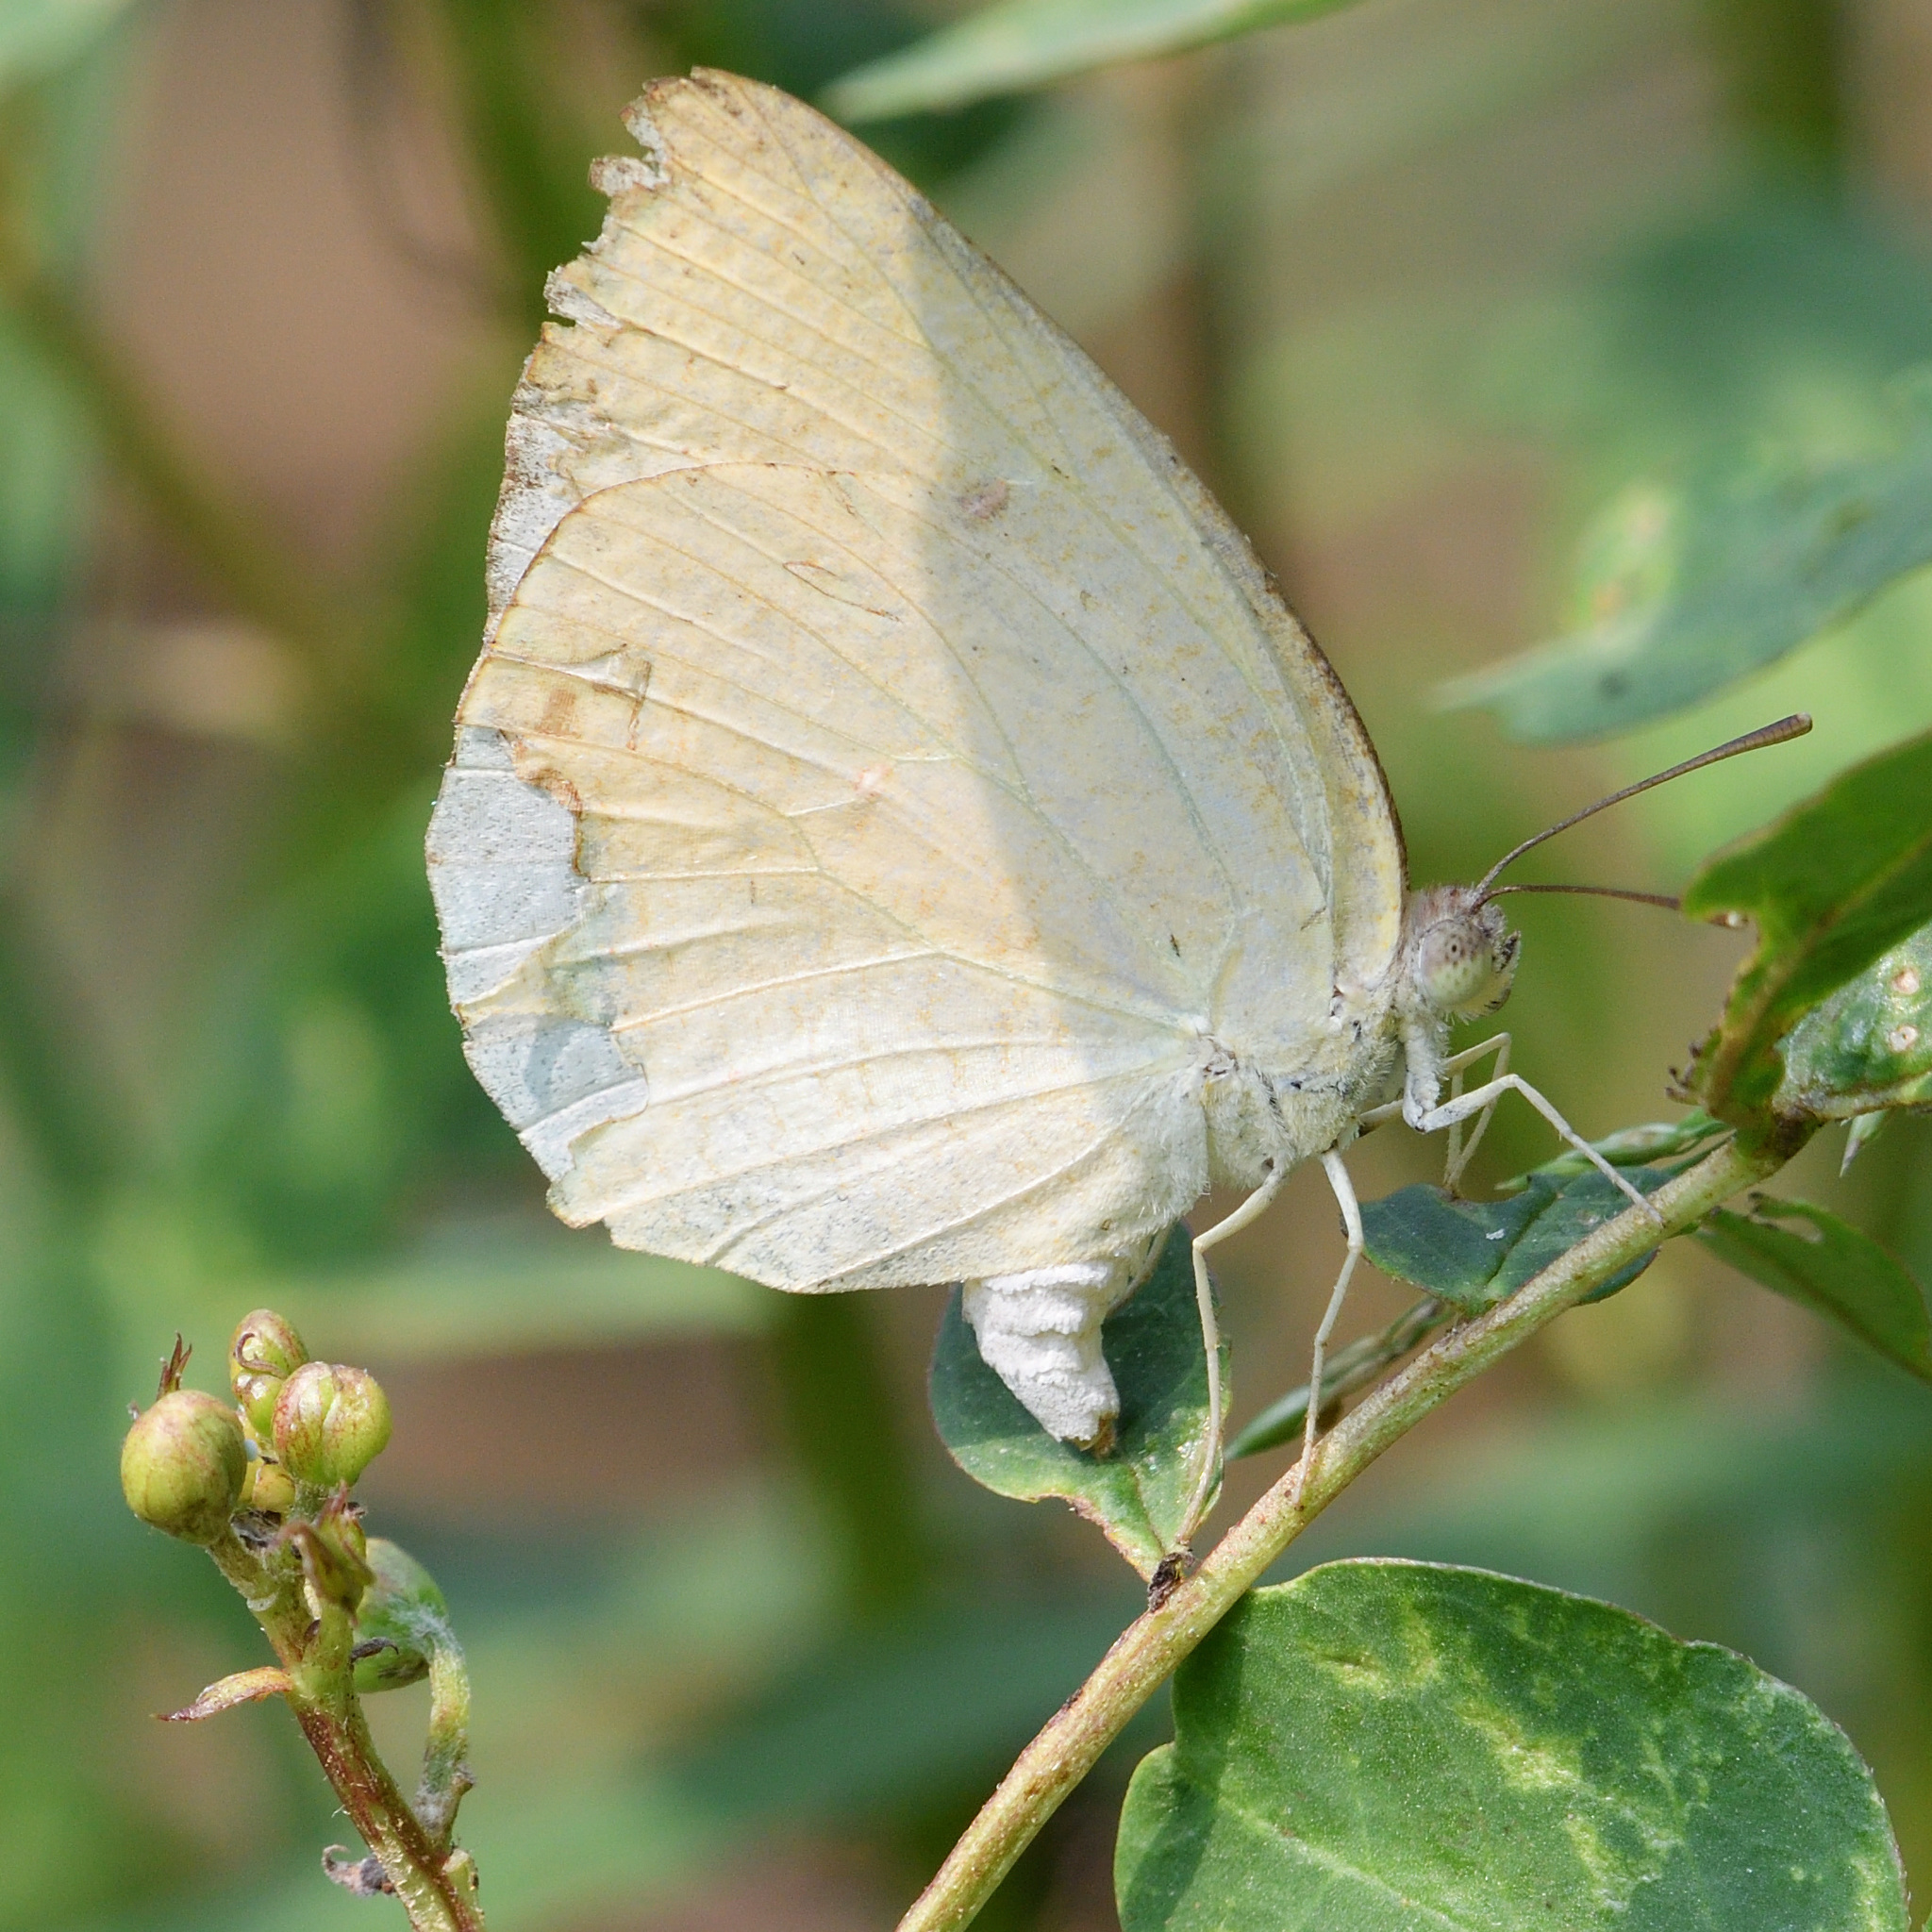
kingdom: Animalia
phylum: Arthropoda
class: Insecta
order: Lepidoptera
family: Pieridae
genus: Catopsilia
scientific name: Catopsilia pomona
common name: Common emigrant
